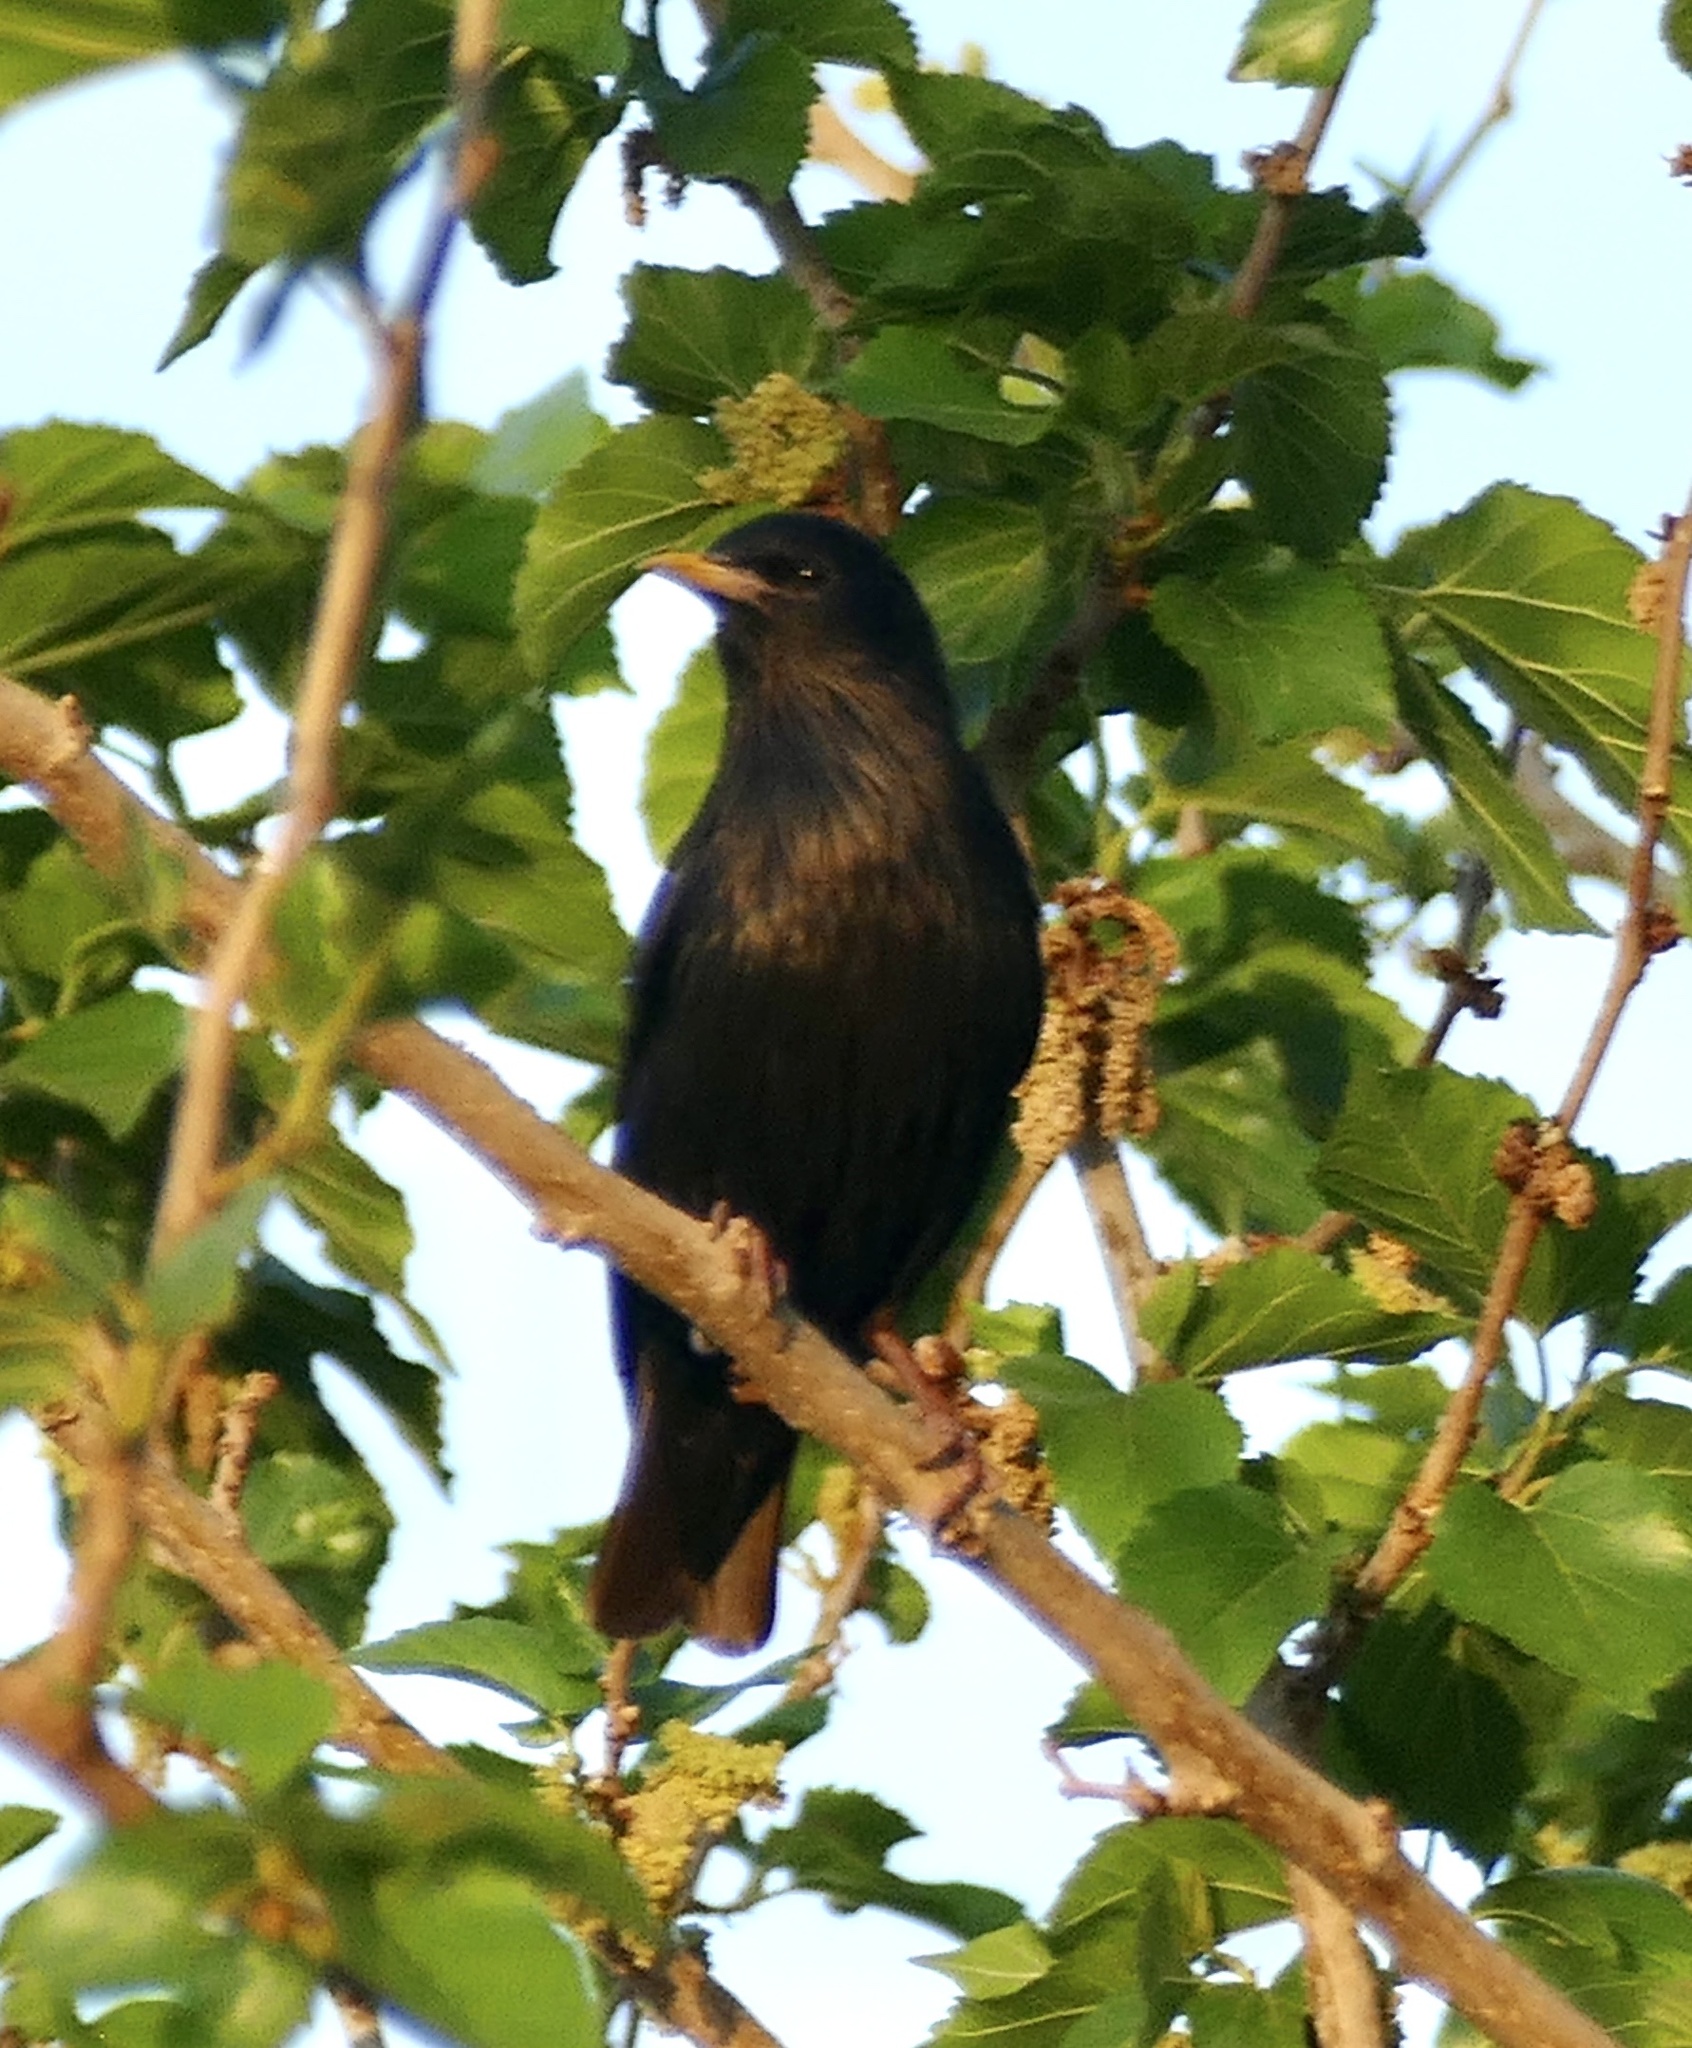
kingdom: Animalia
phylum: Chordata
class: Aves
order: Passeriformes
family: Sturnidae
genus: Sturnus
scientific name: Sturnus unicolor
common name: Spotless starling
